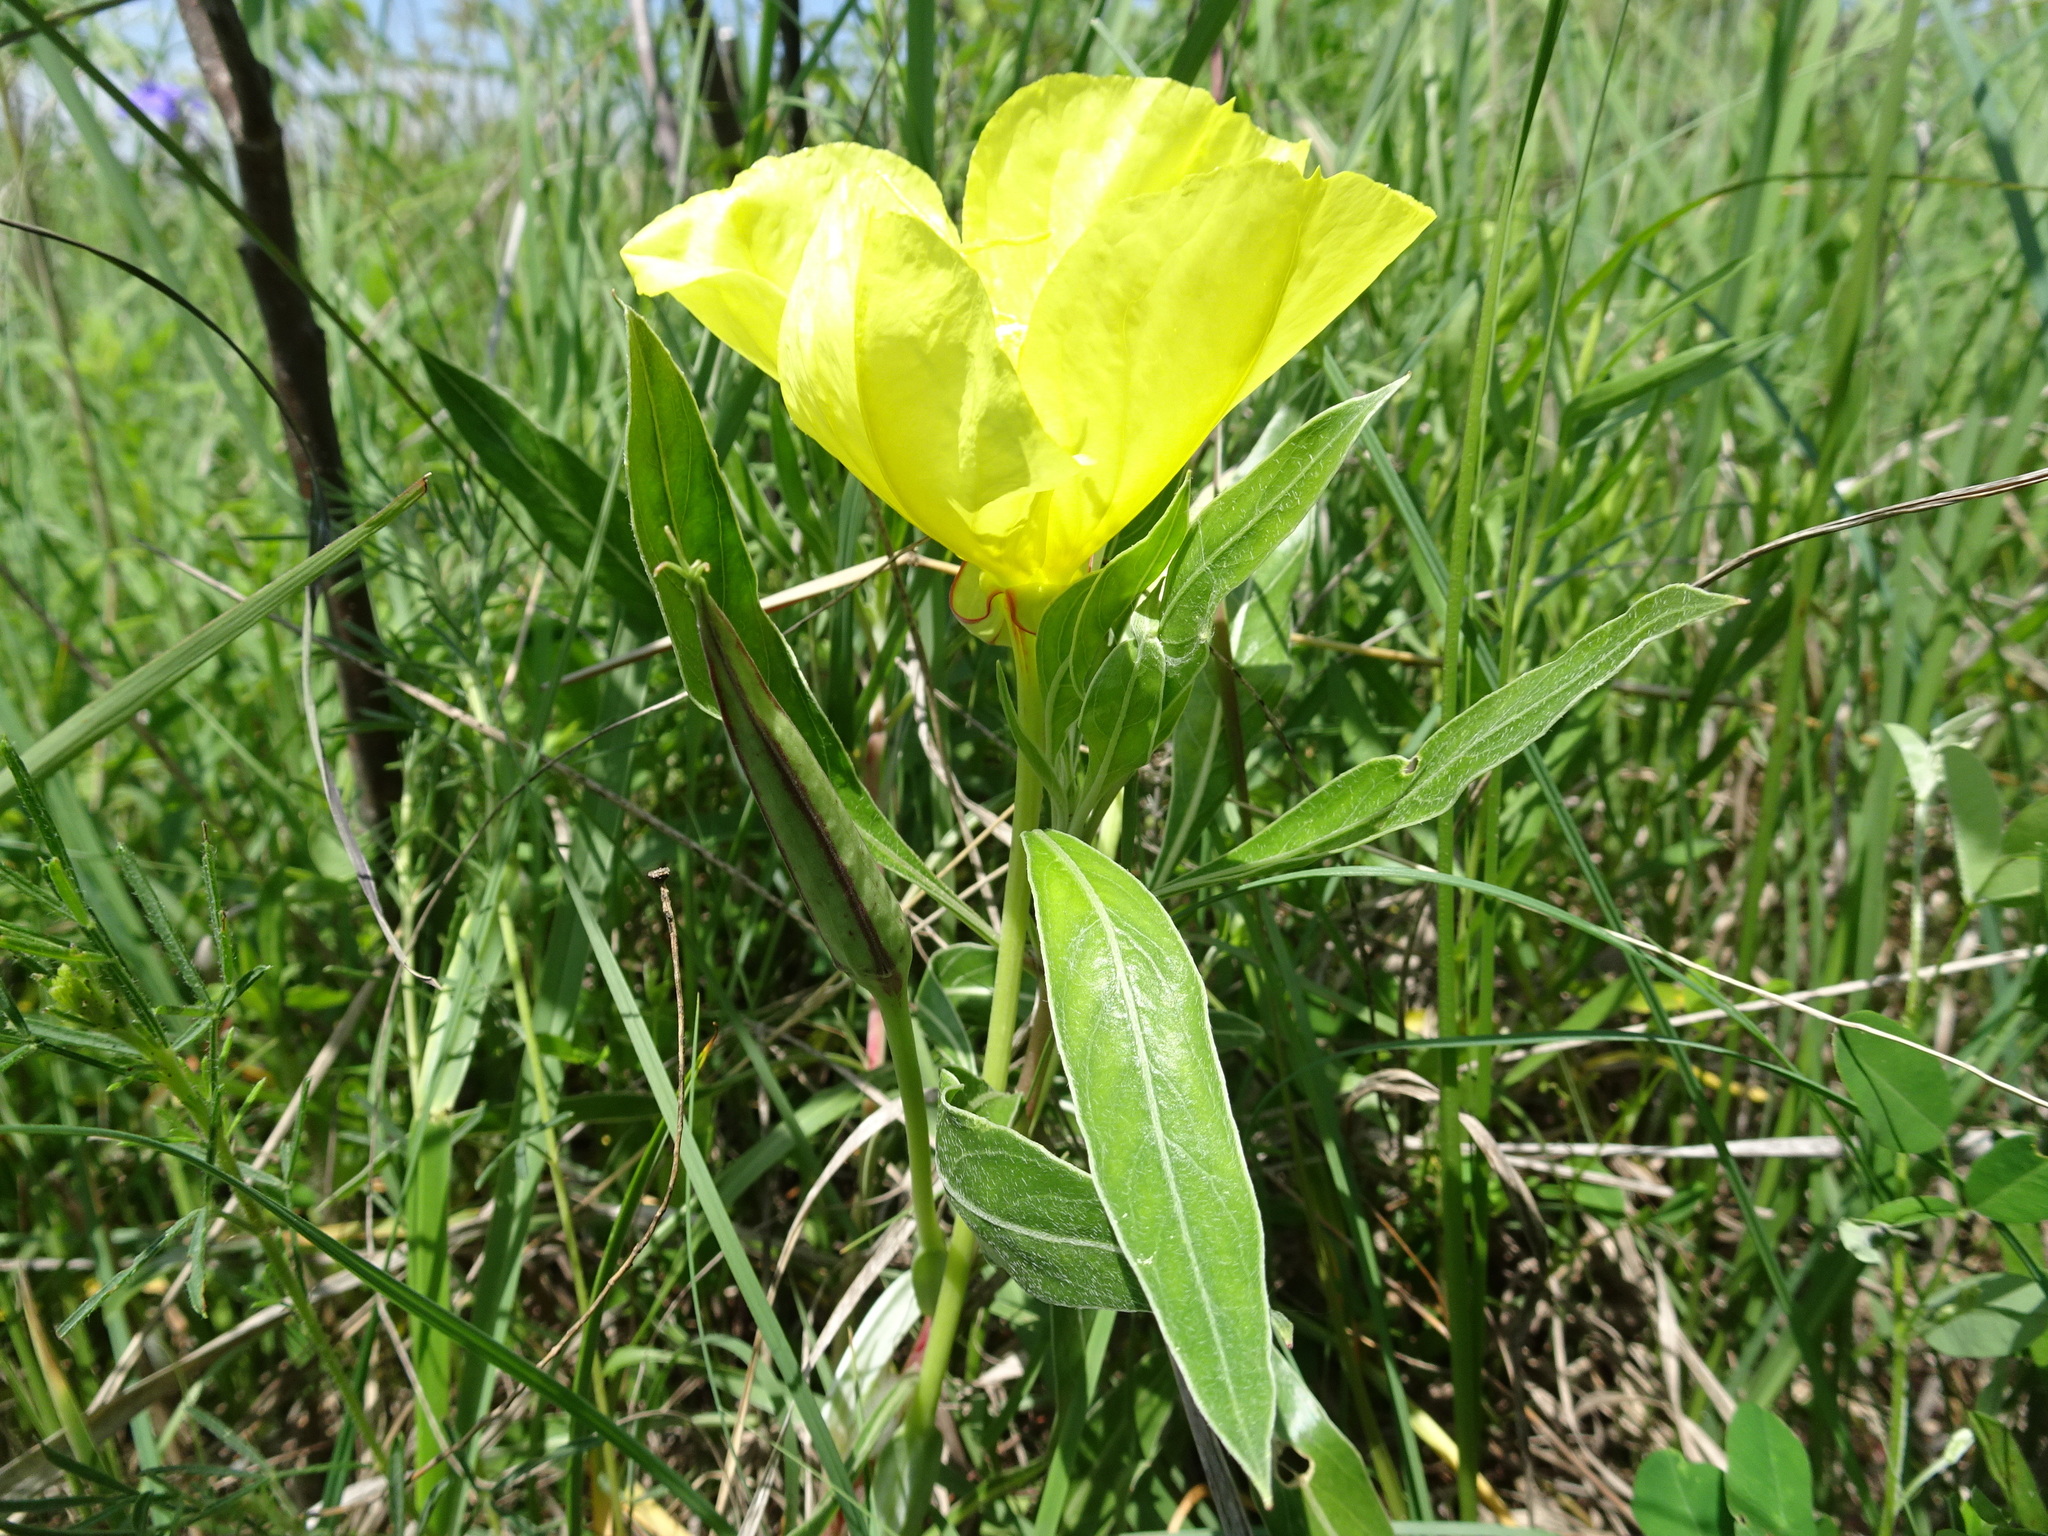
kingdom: Plantae
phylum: Tracheophyta
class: Magnoliopsida
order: Myrtales
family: Onagraceae
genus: Oenothera
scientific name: Oenothera macrocarpa
